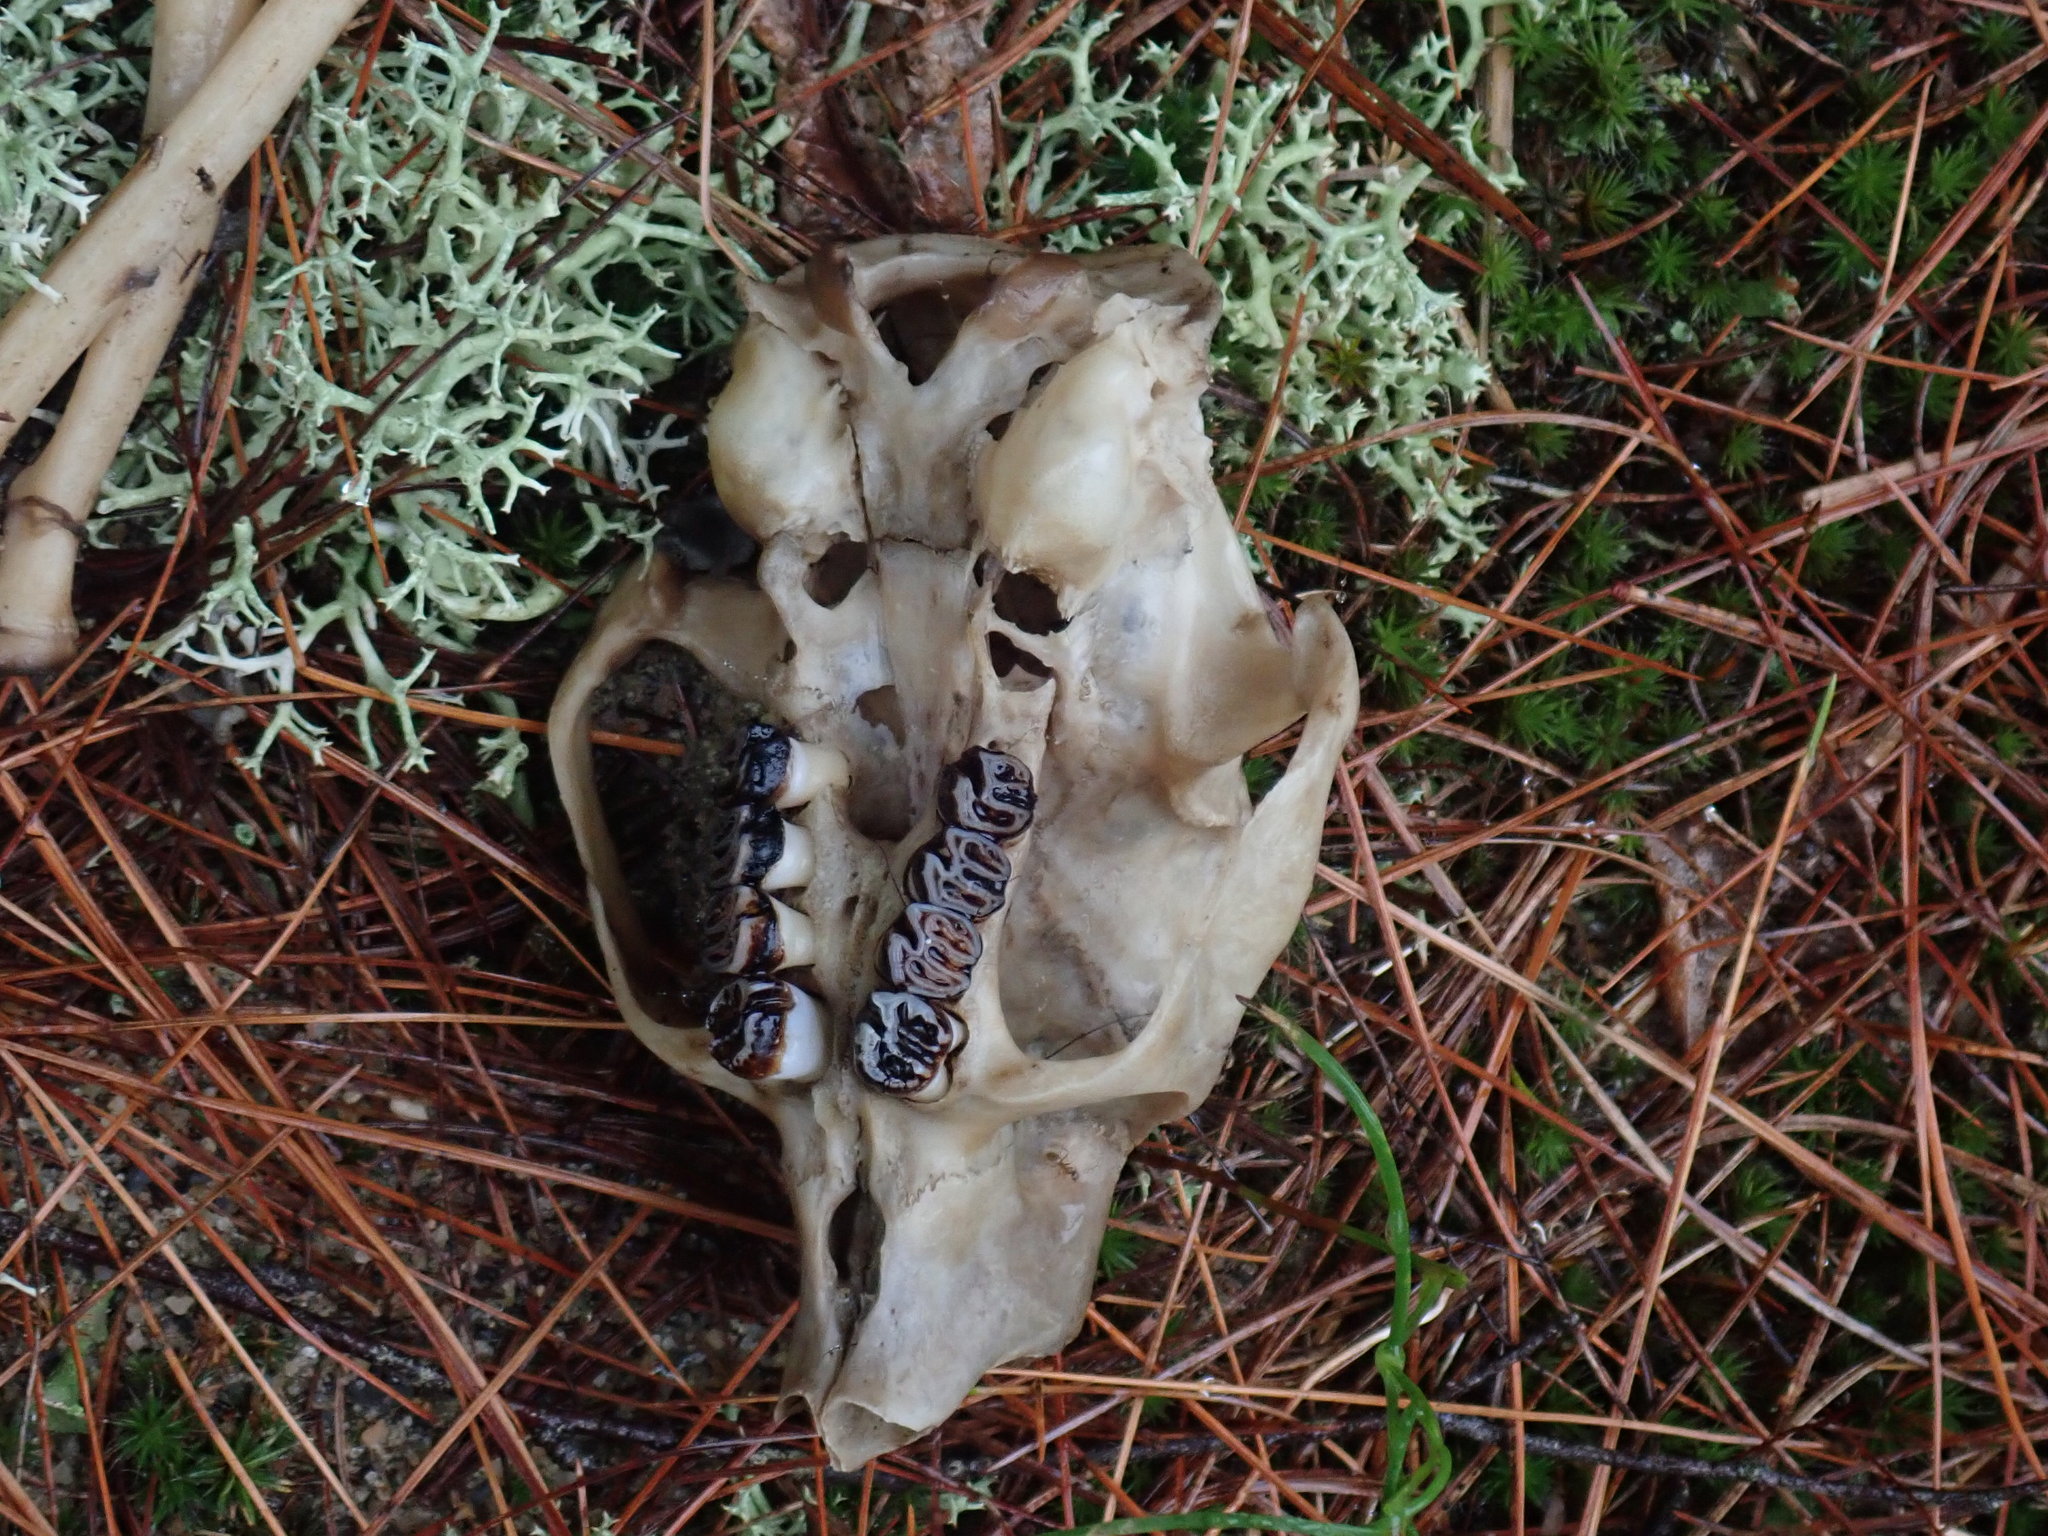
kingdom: Animalia
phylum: Chordata
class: Mammalia
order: Rodentia
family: Erethizontidae
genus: Erethizon
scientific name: Erethizon dorsatus
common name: North american porcupine
